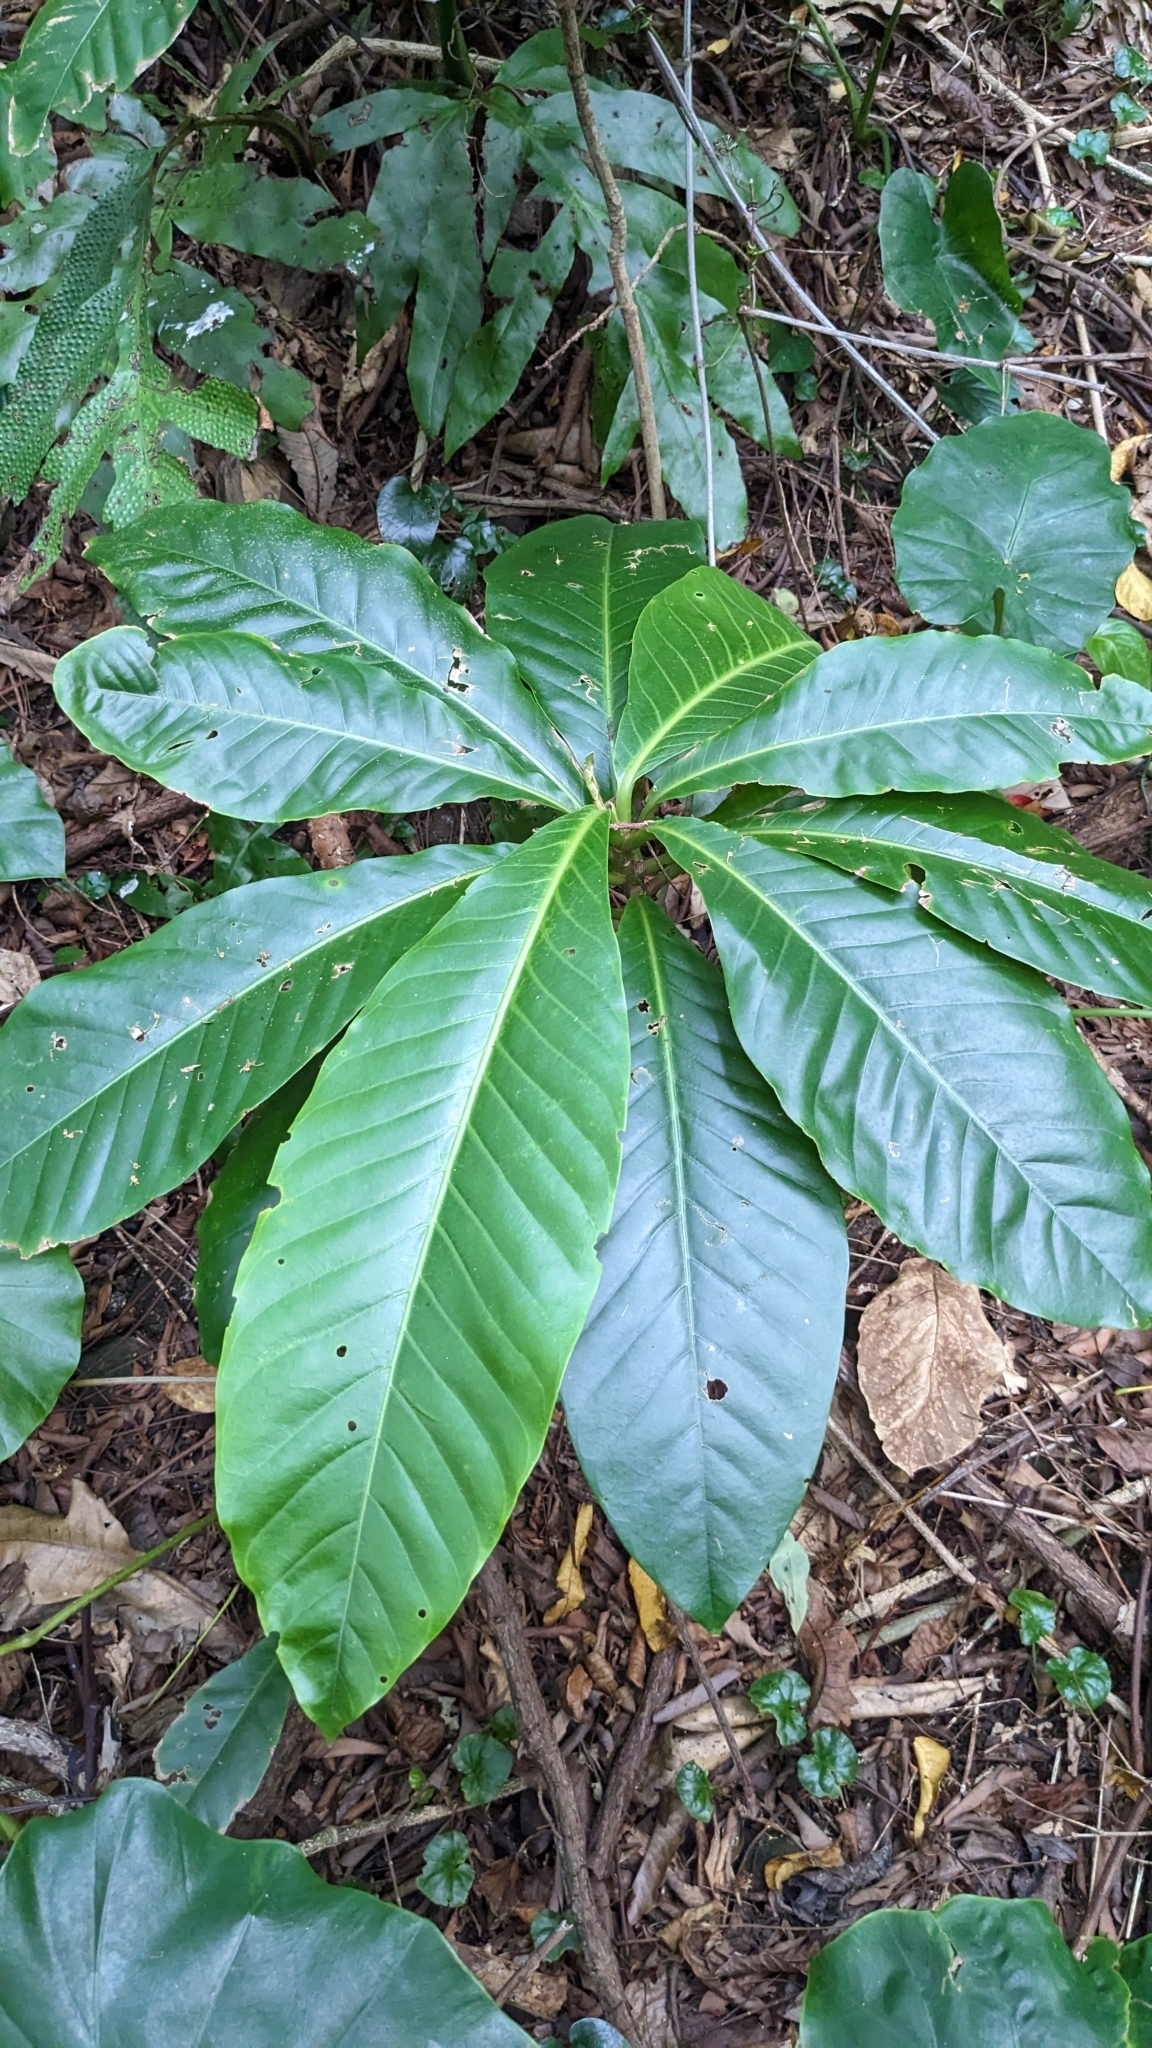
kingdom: Plantae
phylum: Tracheophyta
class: Magnoliopsida
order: Laurales
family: Lauraceae
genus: Litsea
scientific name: Litsea garciae
